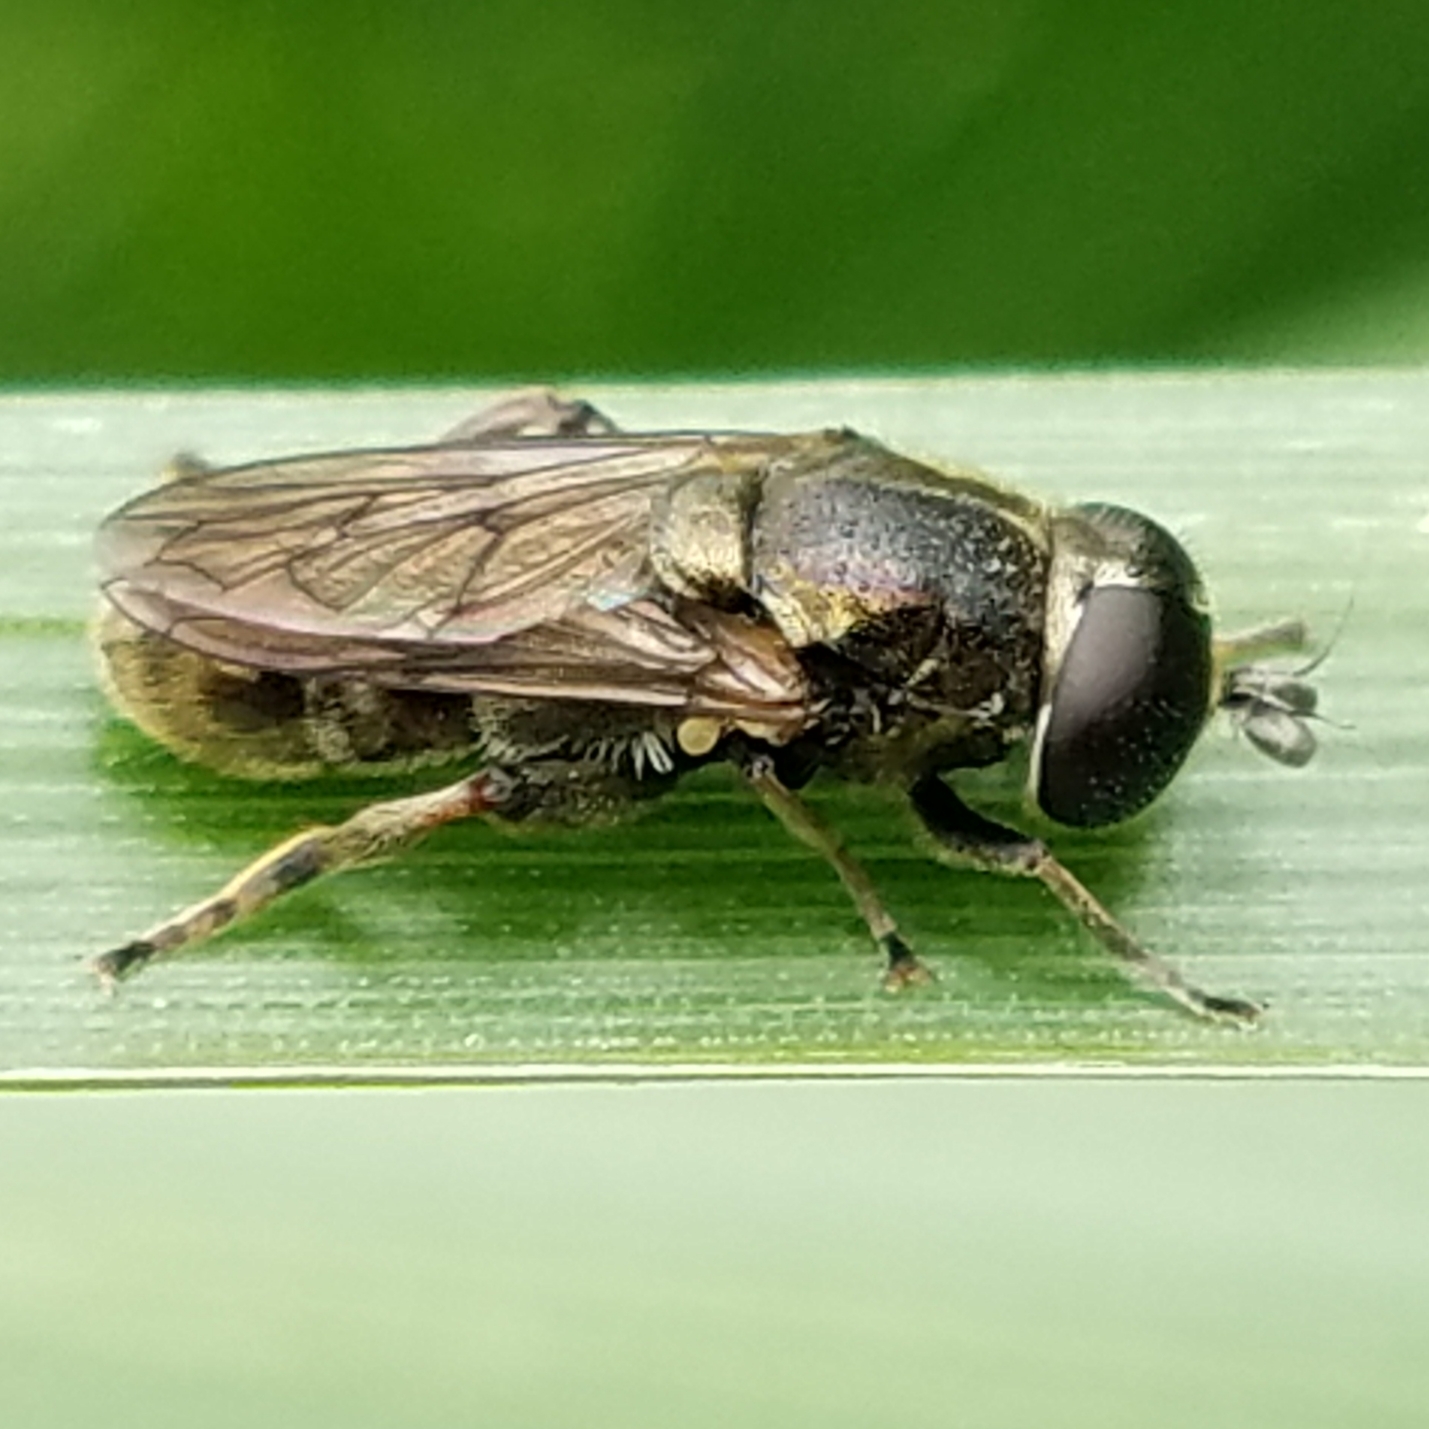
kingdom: Animalia
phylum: Arthropoda
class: Insecta
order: Diptera
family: Syrphidae
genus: Eumerus
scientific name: Eumerus
